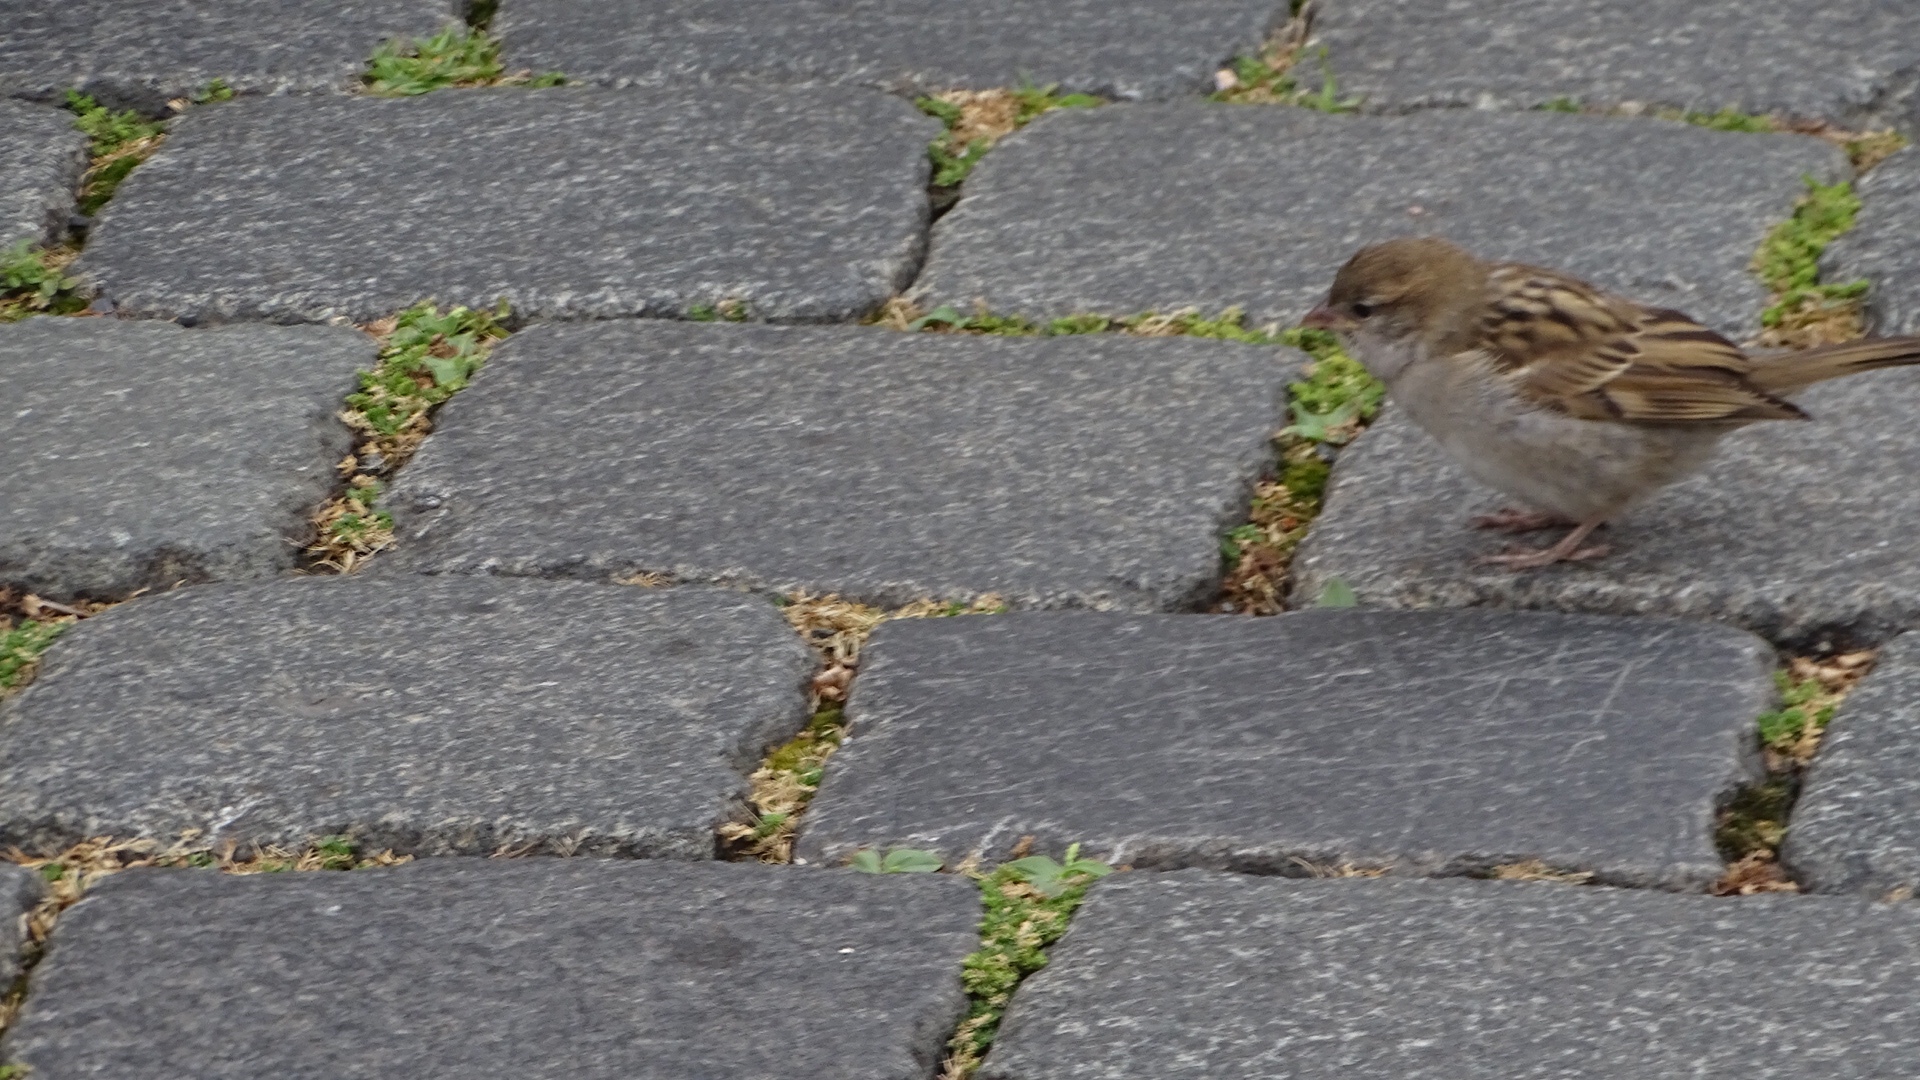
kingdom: Animalia
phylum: Chordata
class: Aves
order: Passeriformes
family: Passeridae
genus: Passer
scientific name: Passer domesticus
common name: House sparrow
